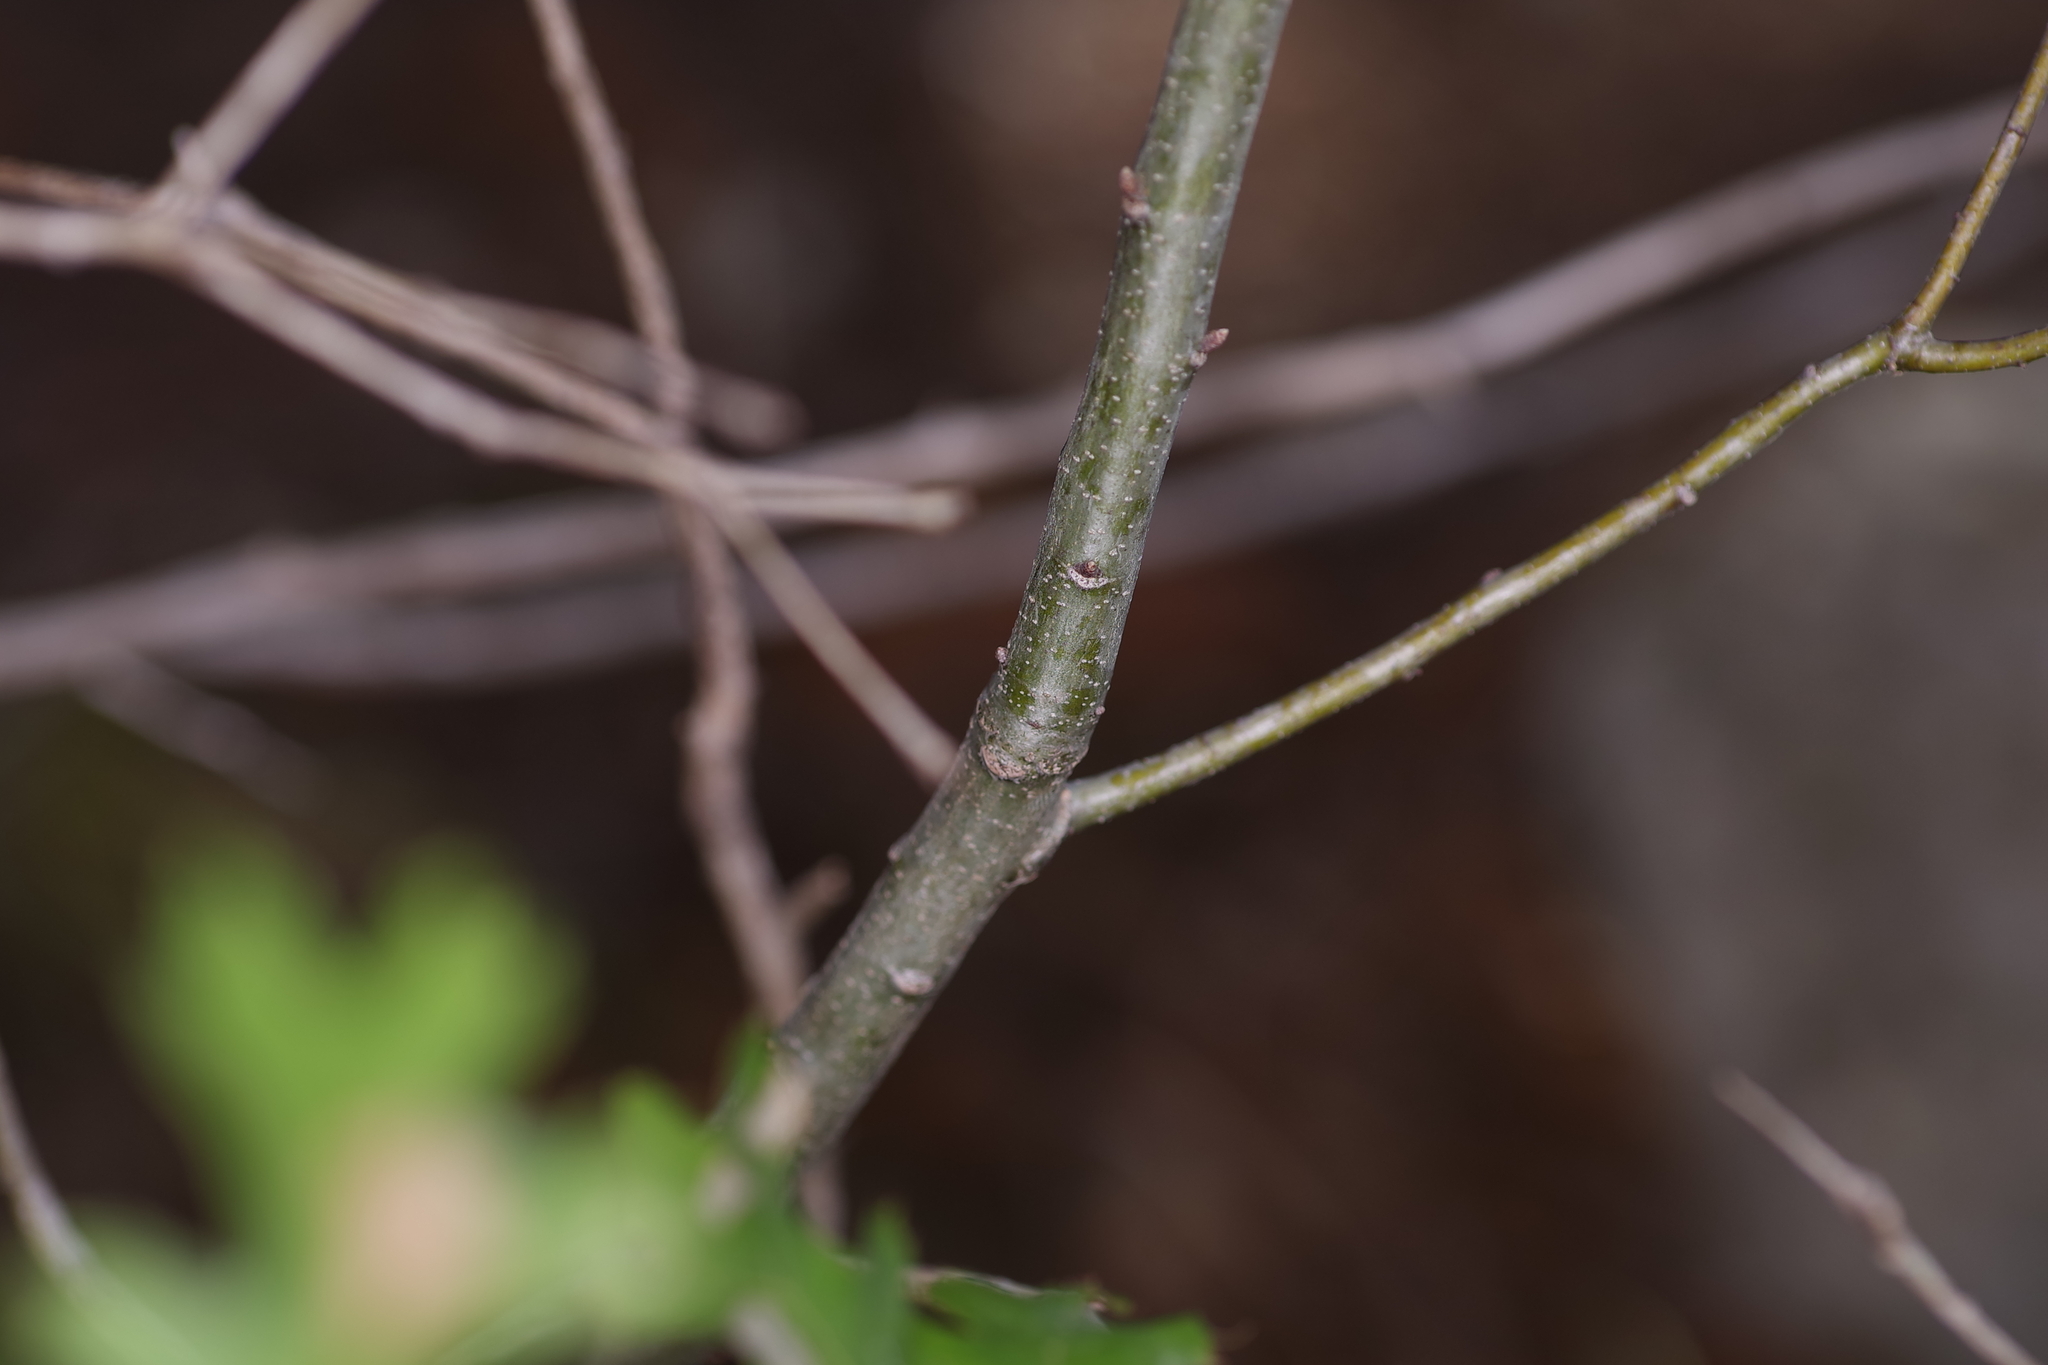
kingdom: Plantae
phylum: Tracheophyta
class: Magnoliopsida
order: Fagales
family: Fagaceae
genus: Quercus
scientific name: Quercus buckleyi
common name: Buckley oak
